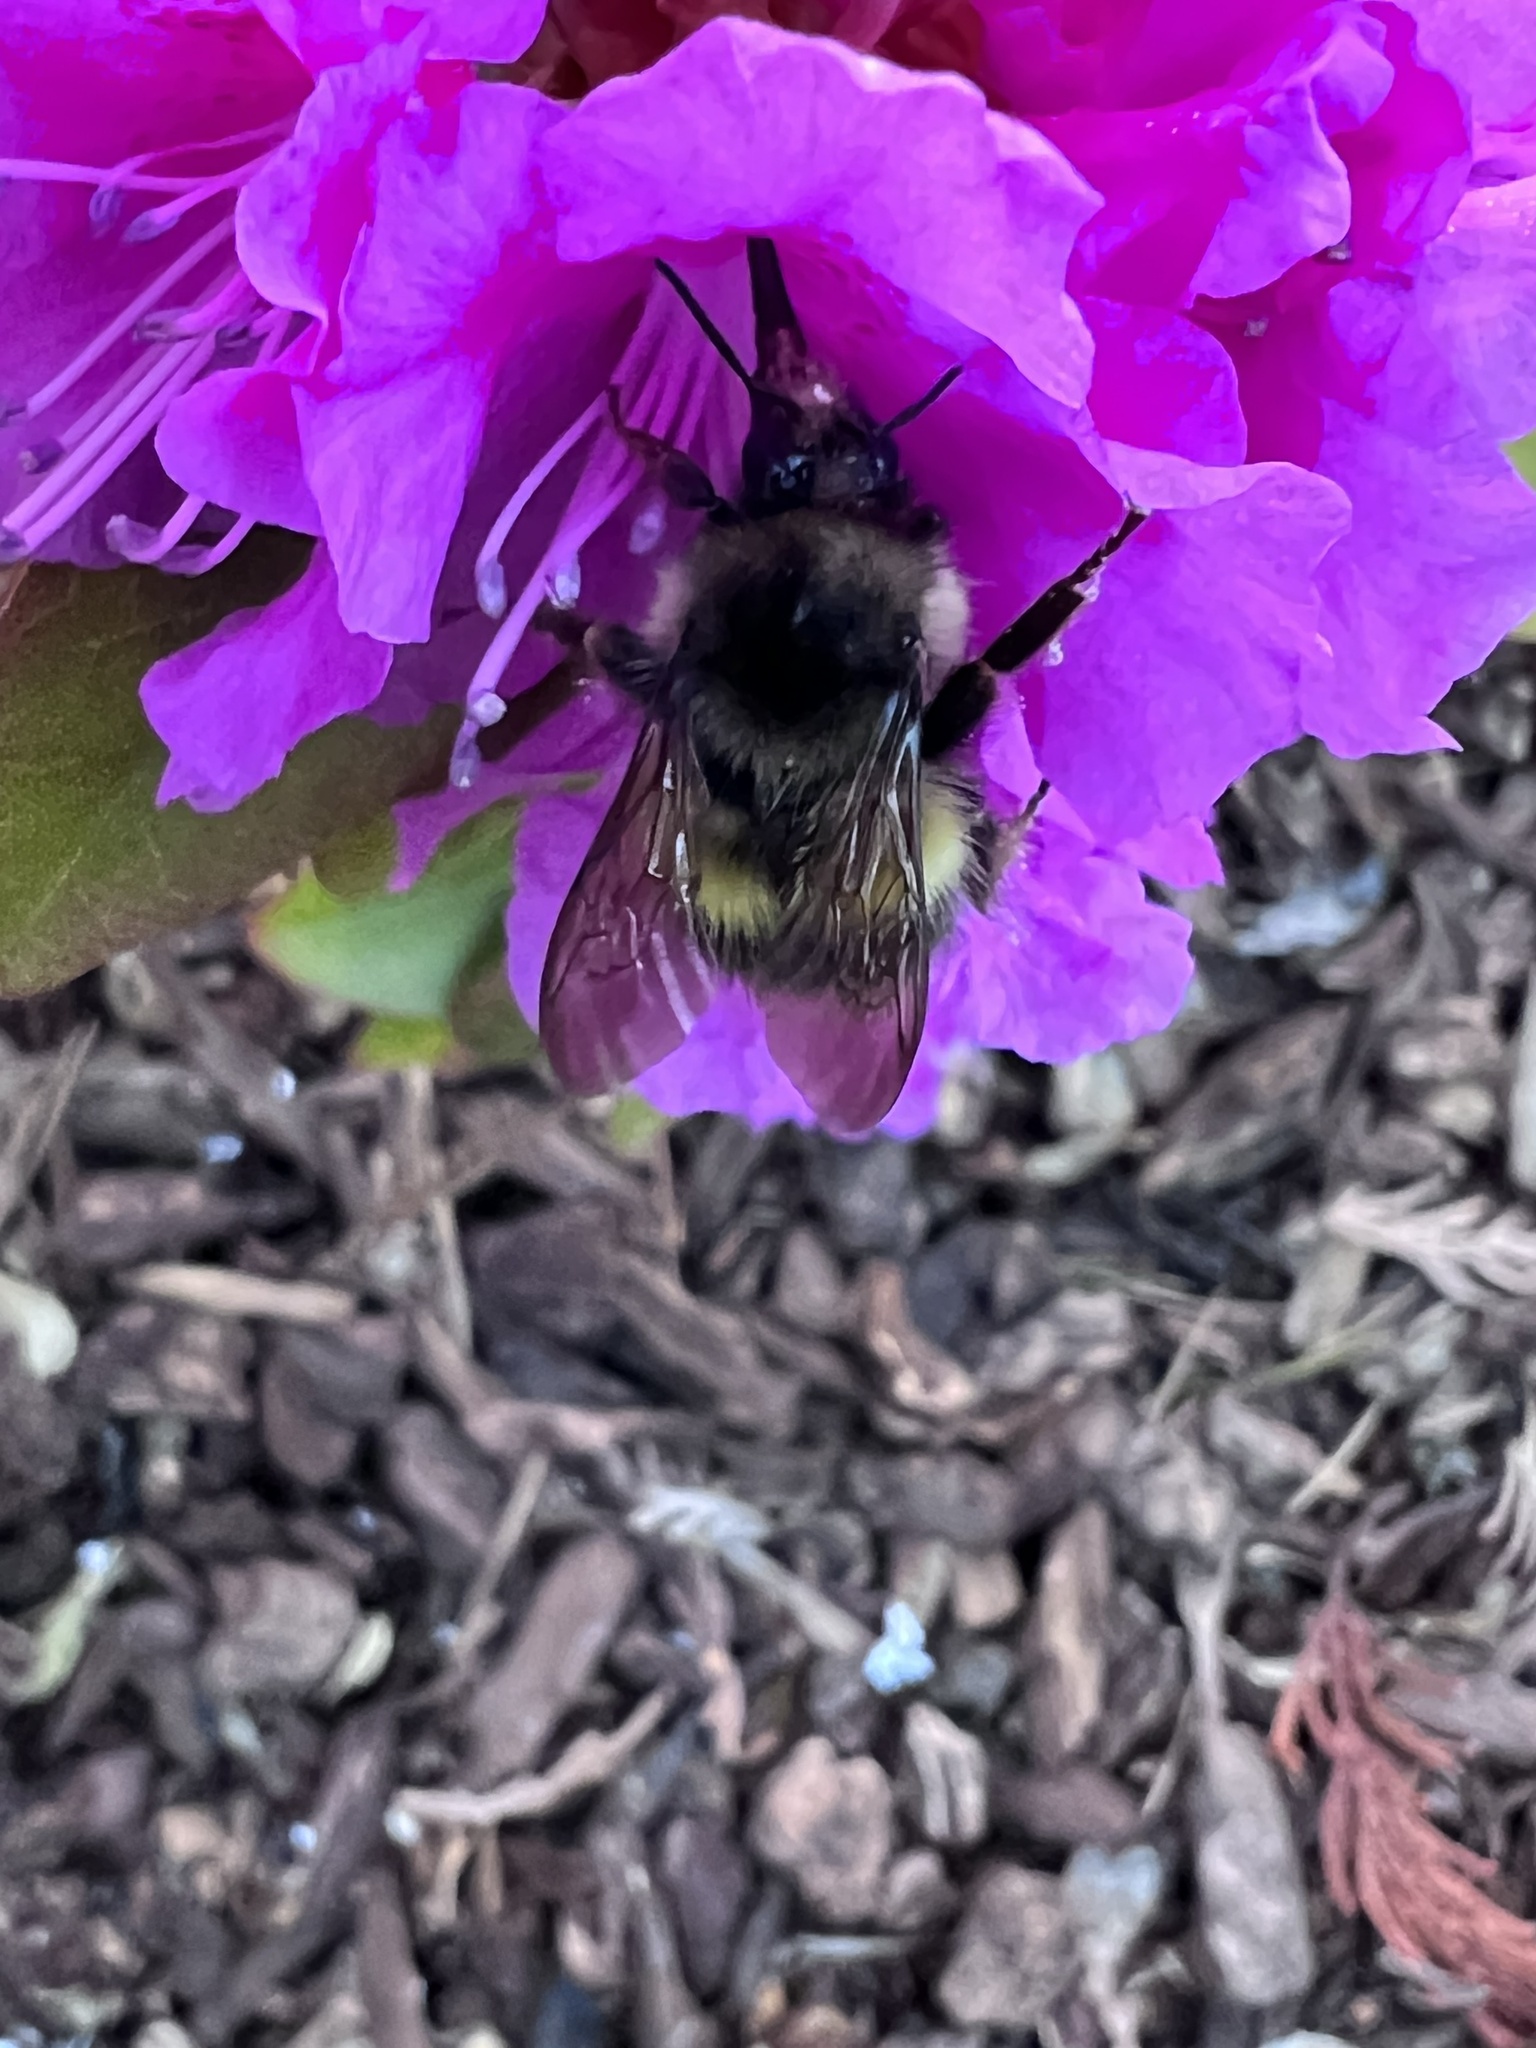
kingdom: Animalia
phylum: Arthropoda
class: Insecta
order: Hymenoptera
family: Apidae
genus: Bombus
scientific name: Bombus flavifrons
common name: Yellow head bumble bee
